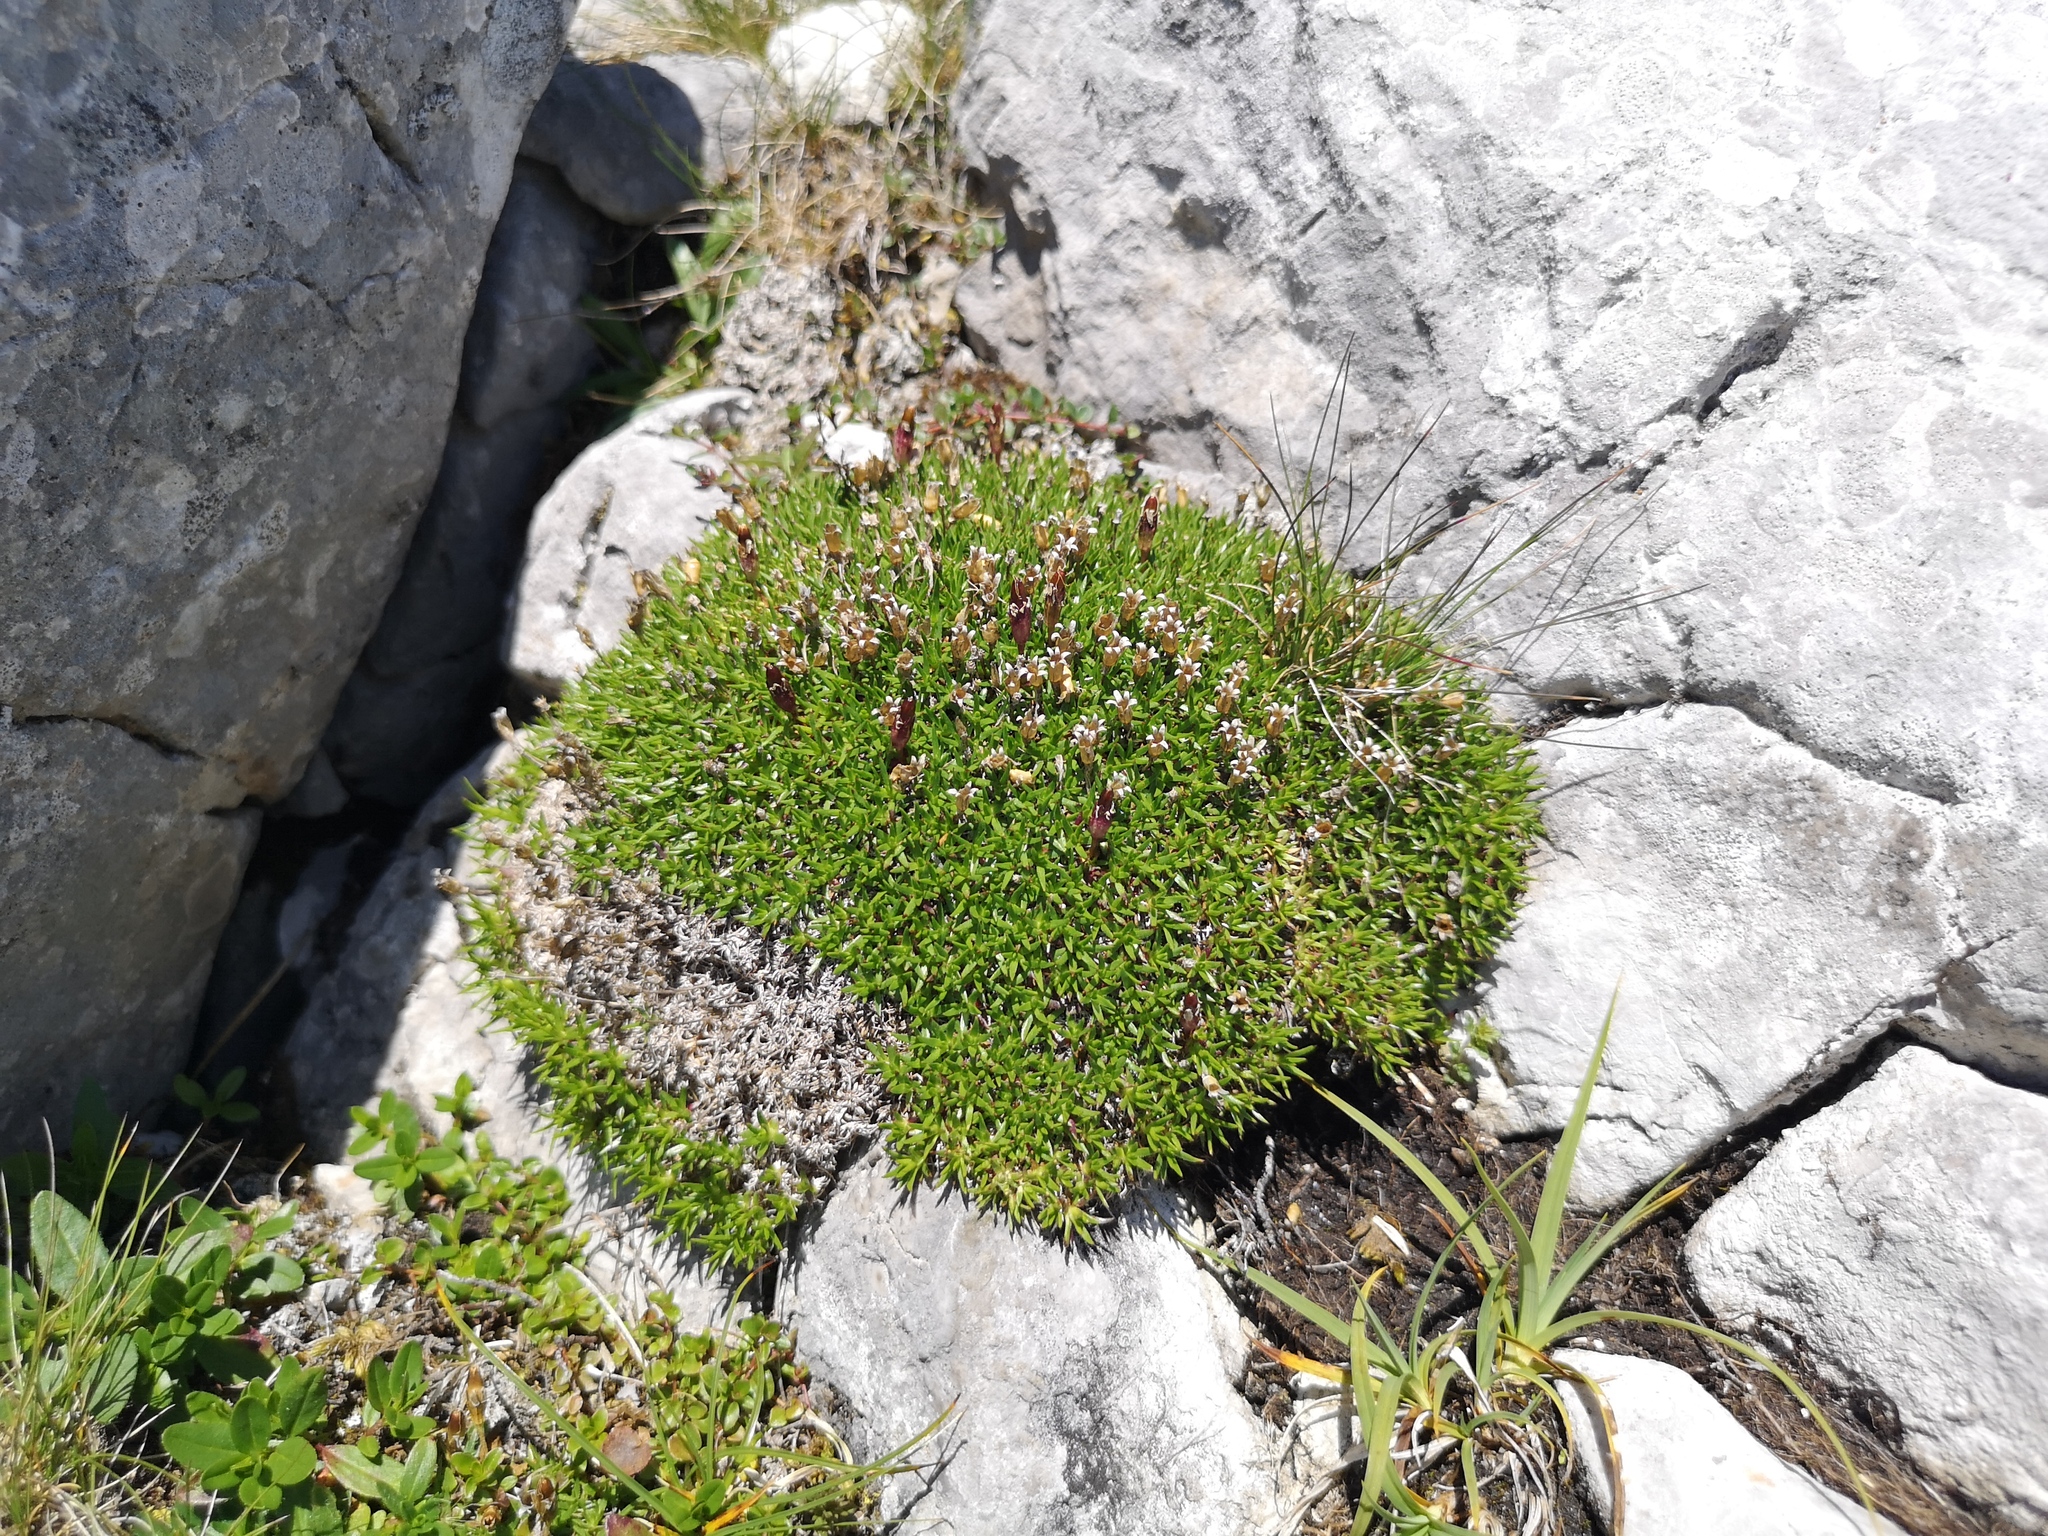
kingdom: Plantae
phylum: Tracheophyta
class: Magnoliopsida
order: Caryophyllales
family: Caryophyllaceae
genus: Silene
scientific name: Silene acaulis
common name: Moss campion
